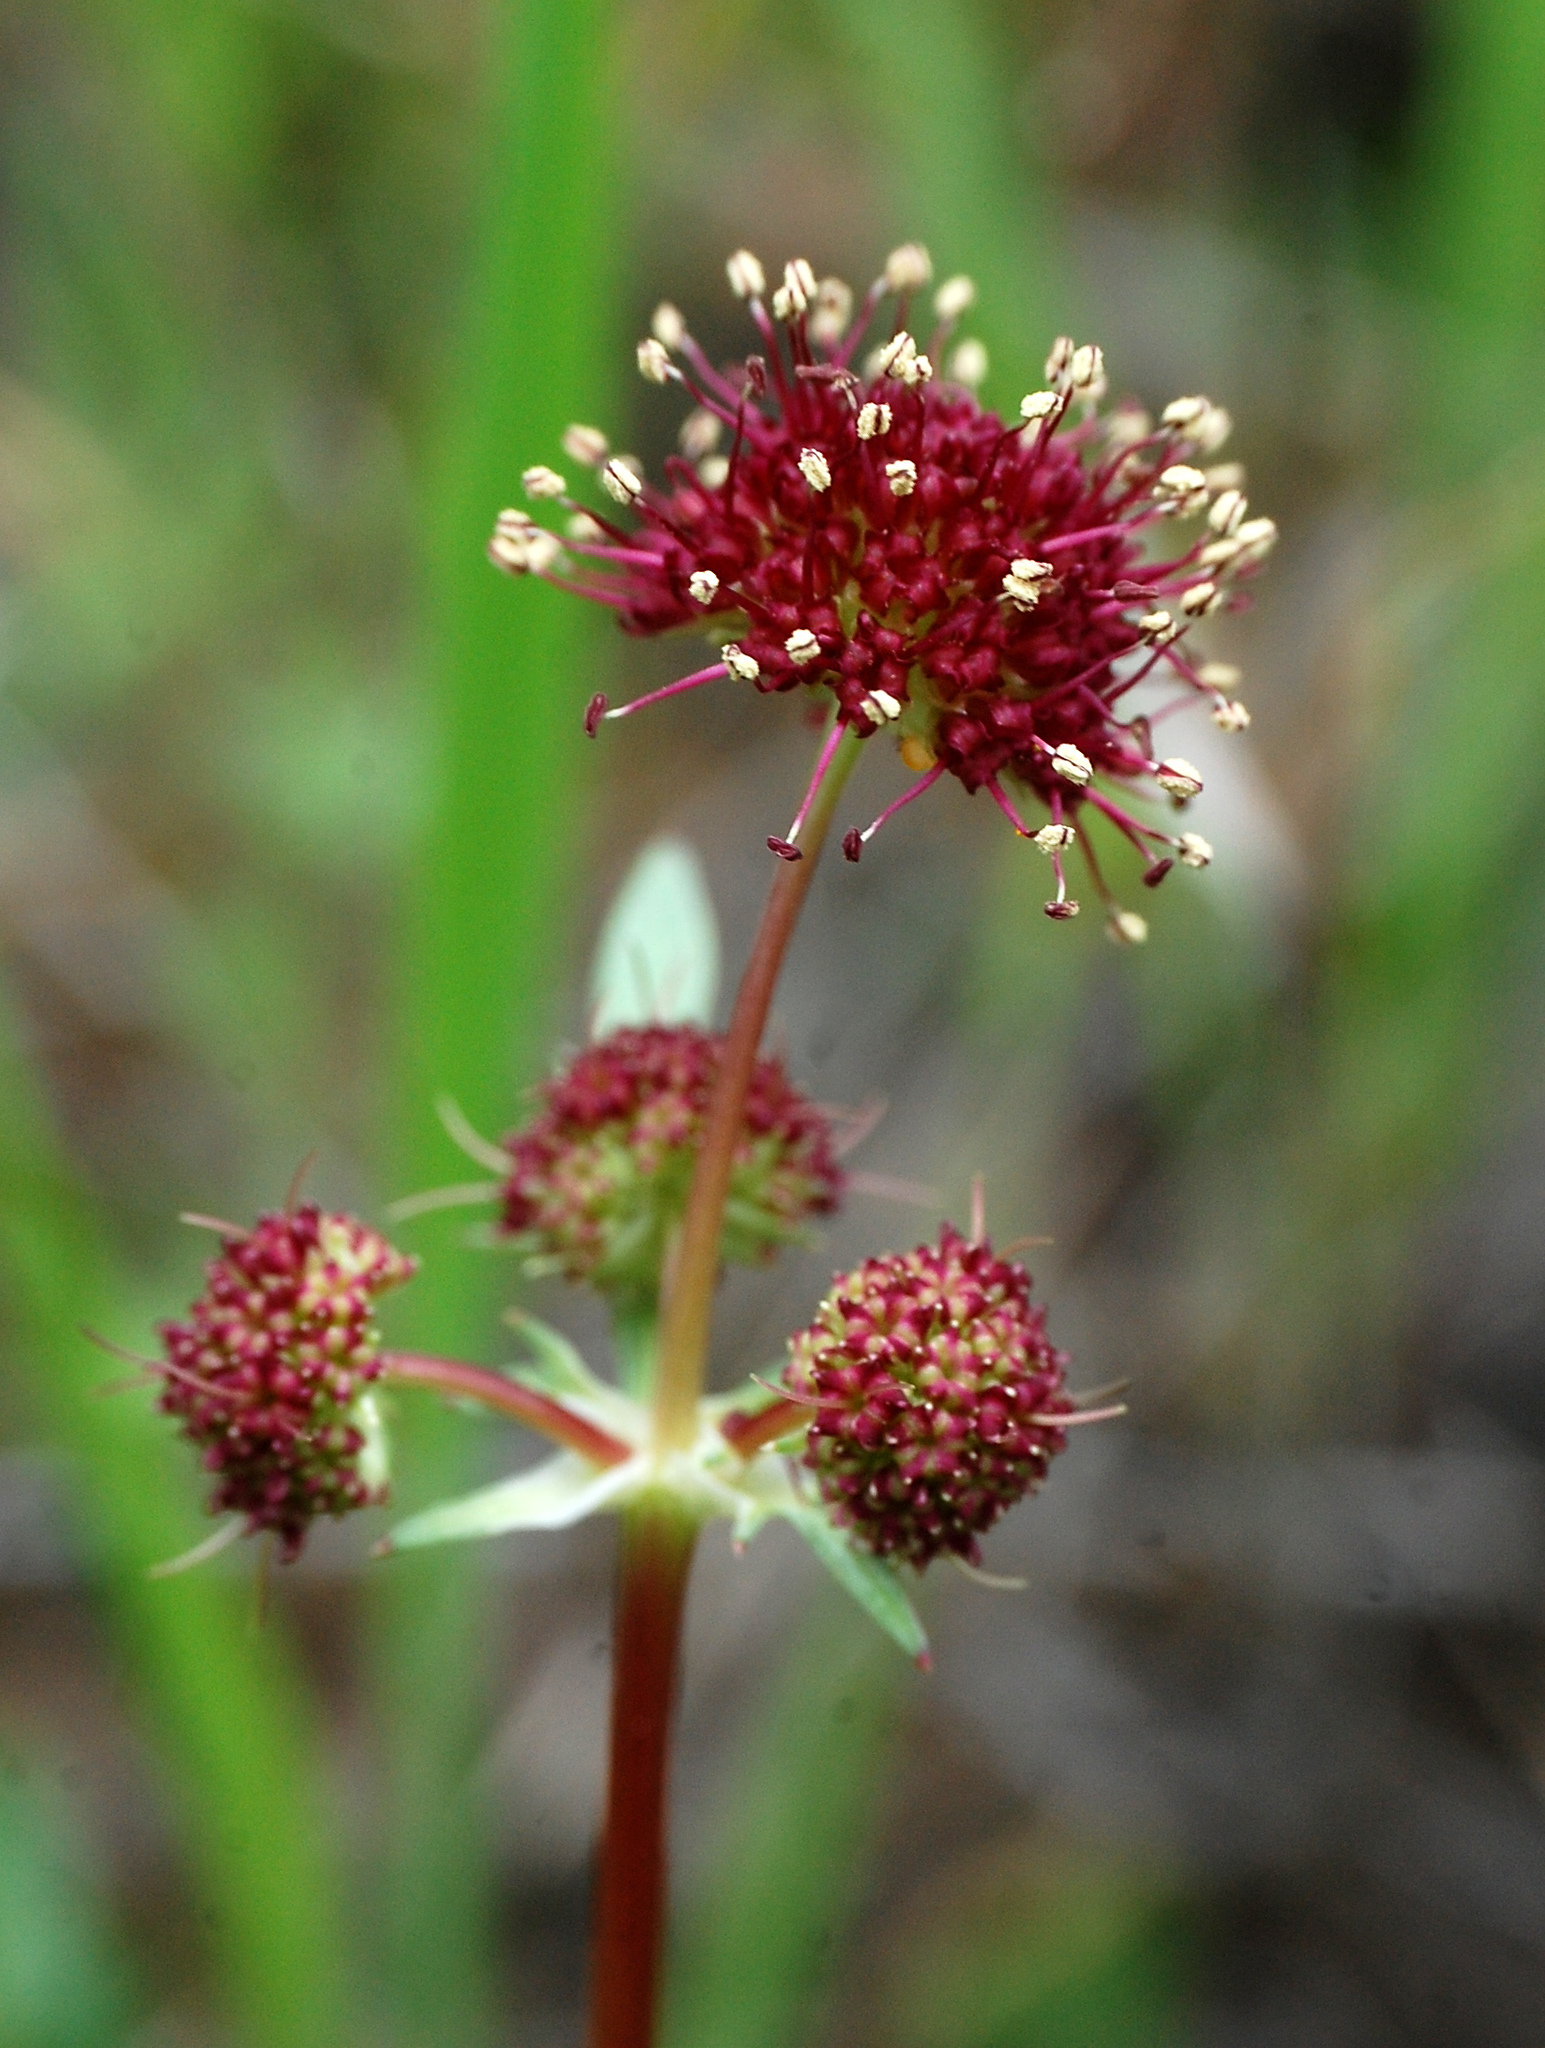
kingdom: Plantae
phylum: Tracheophyta
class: Magnoliopsida
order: Apiales
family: Apiaceae
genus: Sanicula
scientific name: Sanicula bipinnatifida
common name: Shoe-buttons
